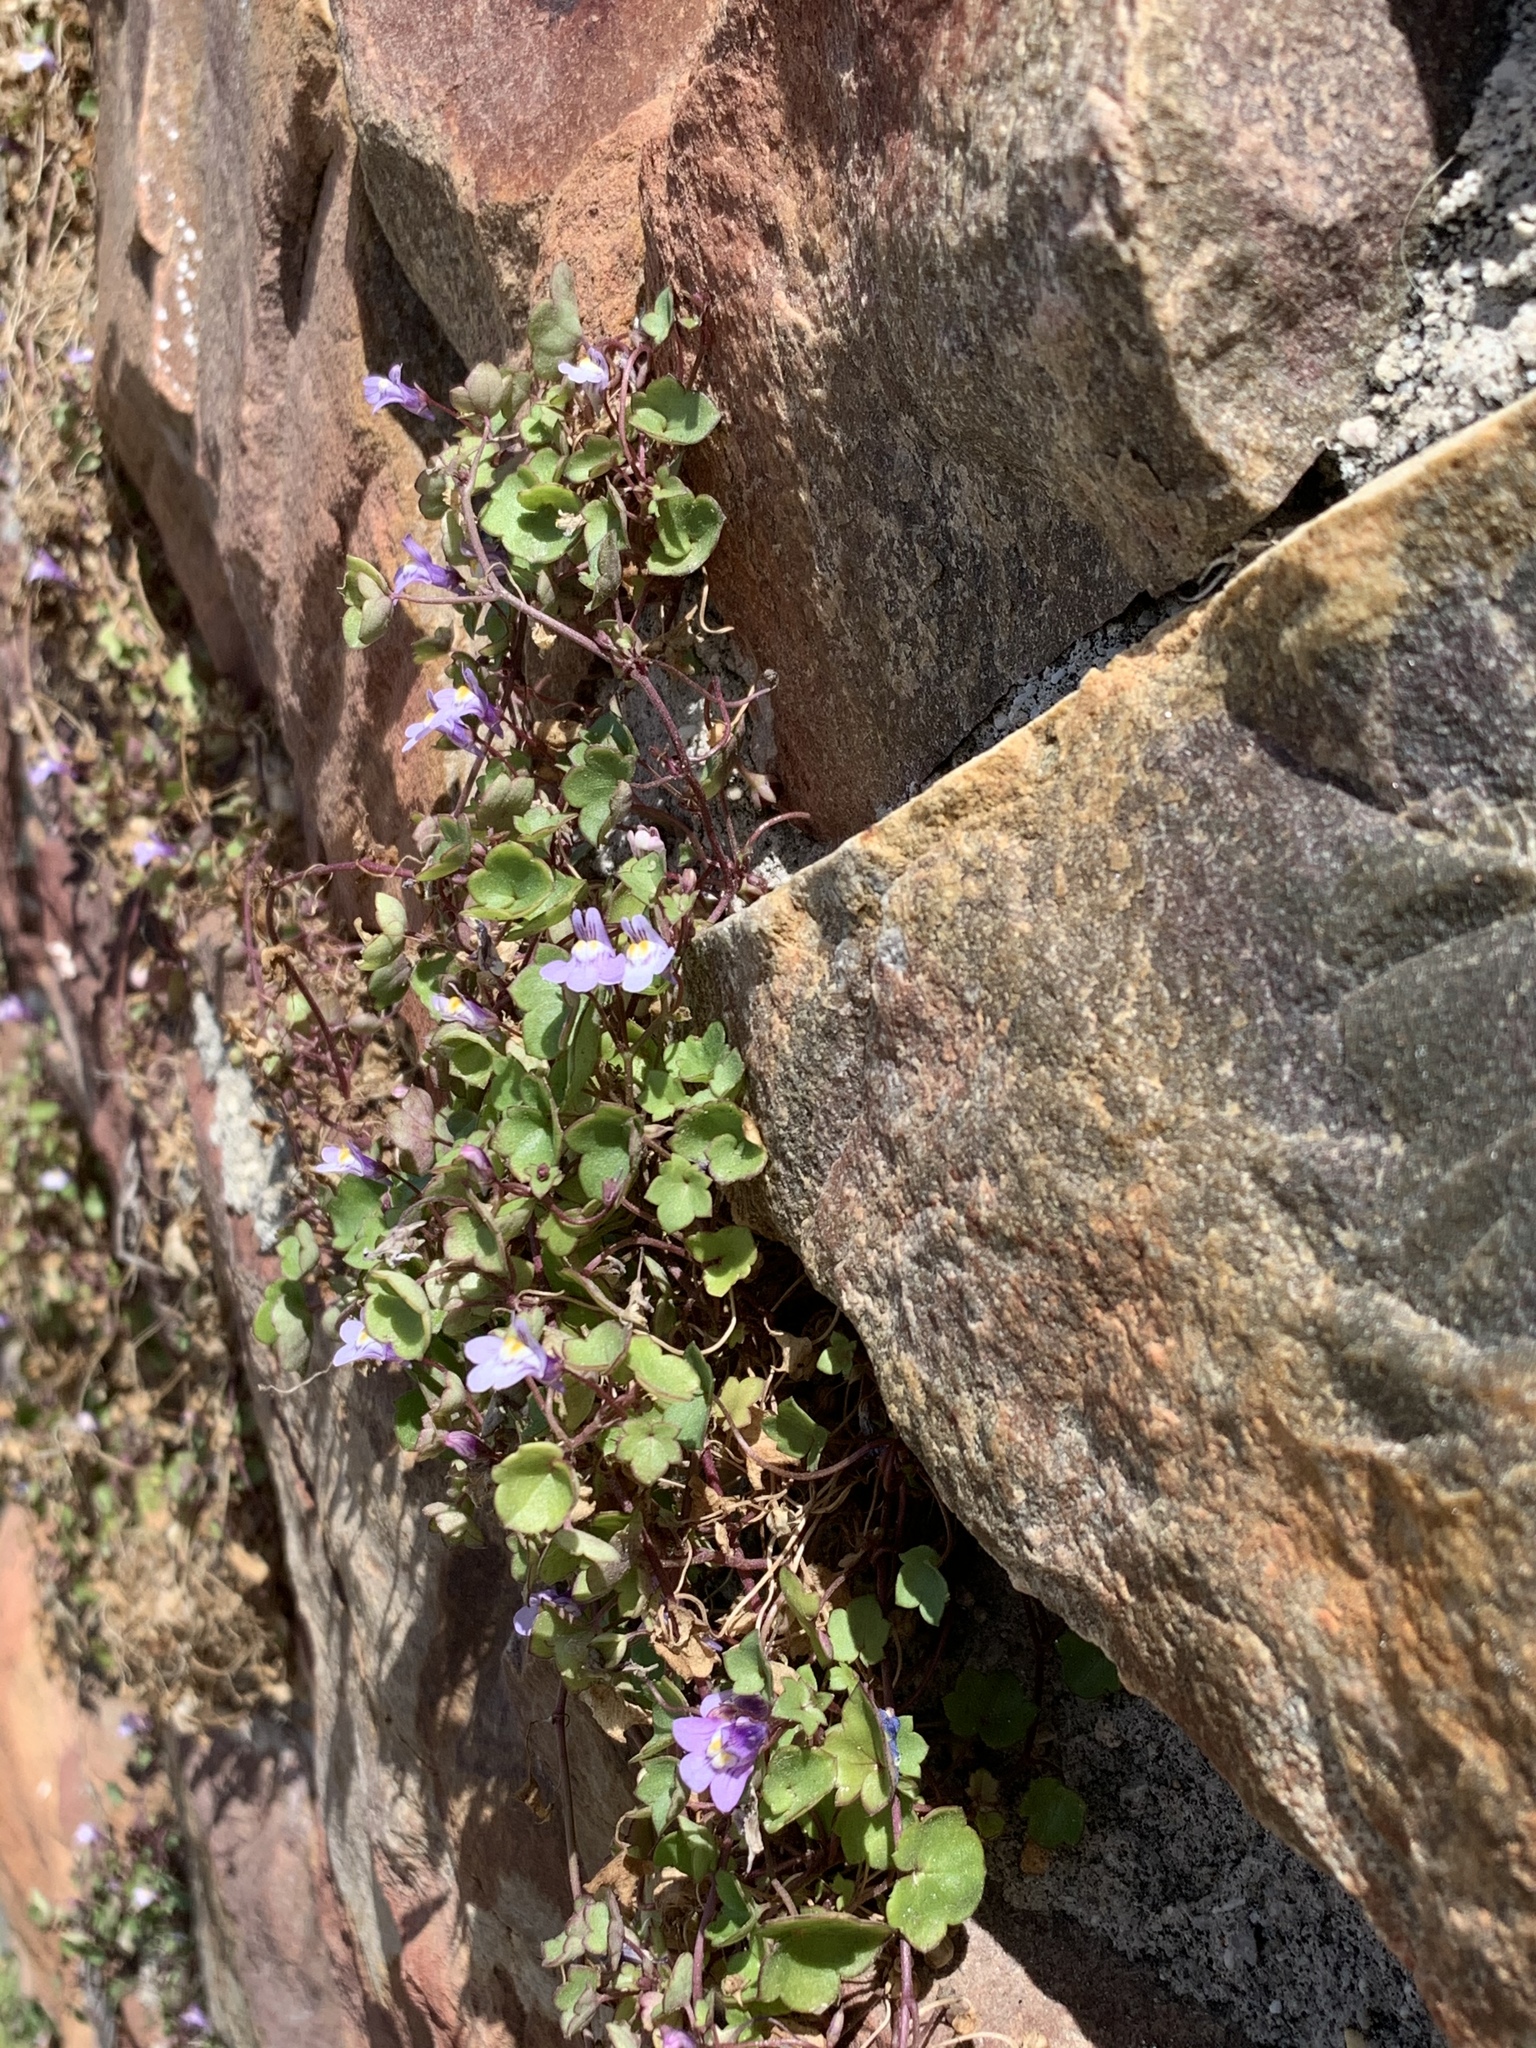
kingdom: Plantae
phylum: Tracheophyta
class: Magnoliopsida
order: Lamiales
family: Plantaginaceae
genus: Cymbalaria
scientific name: Cymbalaria muralis
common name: Ivy-leaved toadflax
